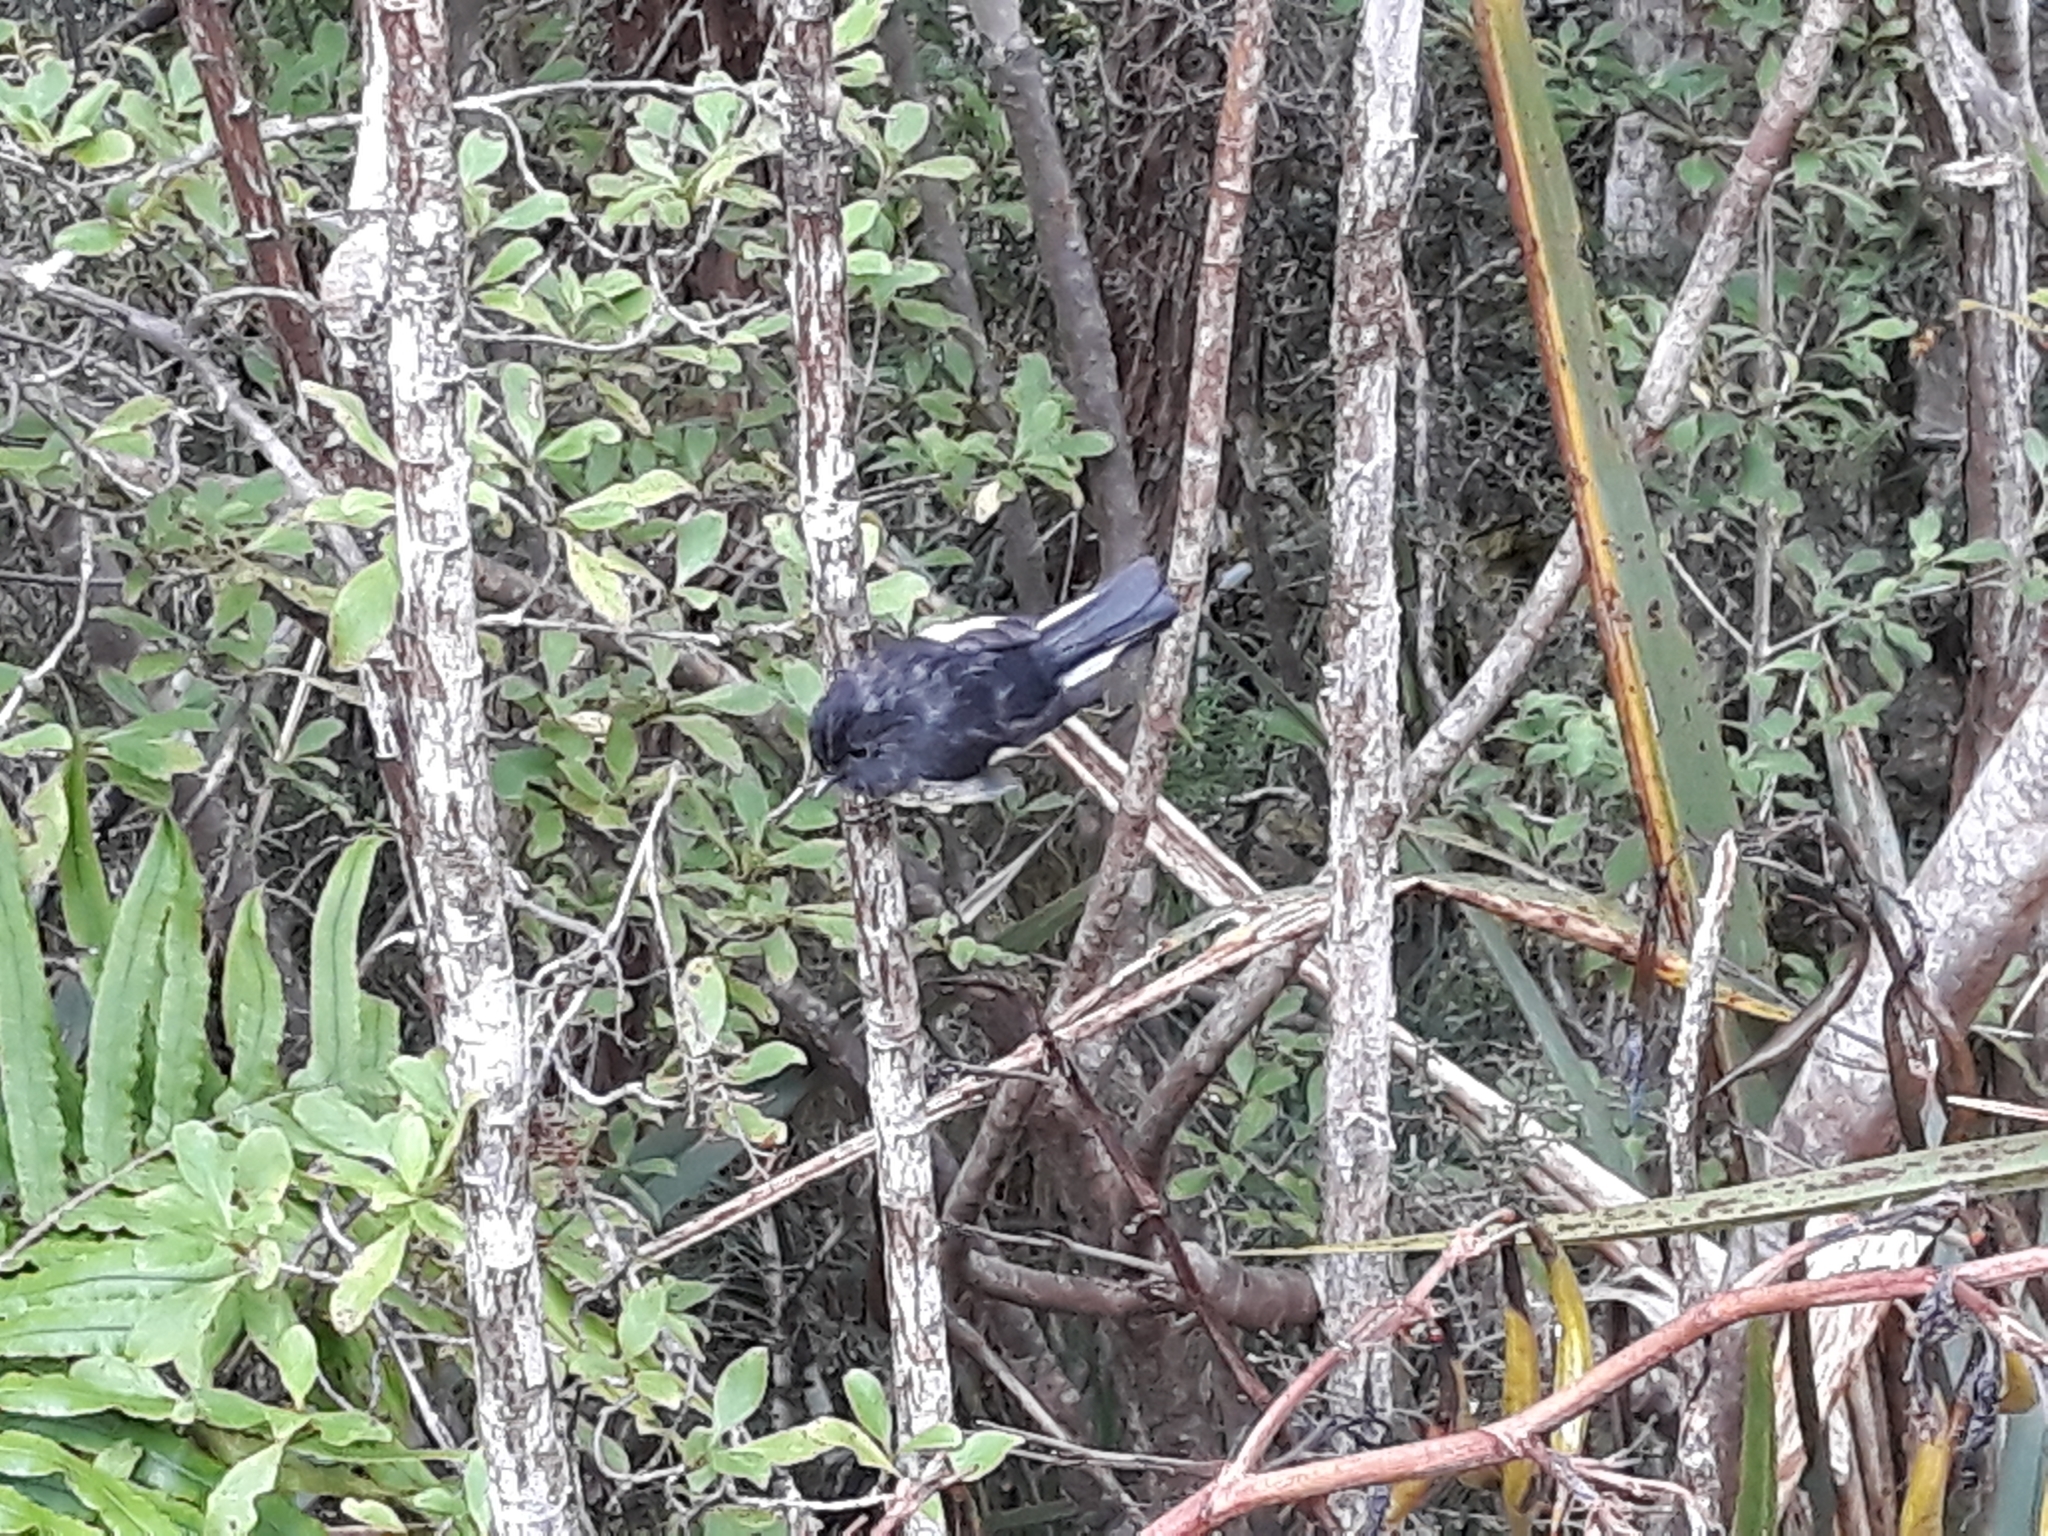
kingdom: Animalia
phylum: Chordata
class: Aves
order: Passeriformes
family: Petroicidae
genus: Petroica
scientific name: Petroica macrocephala
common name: Tomtit
